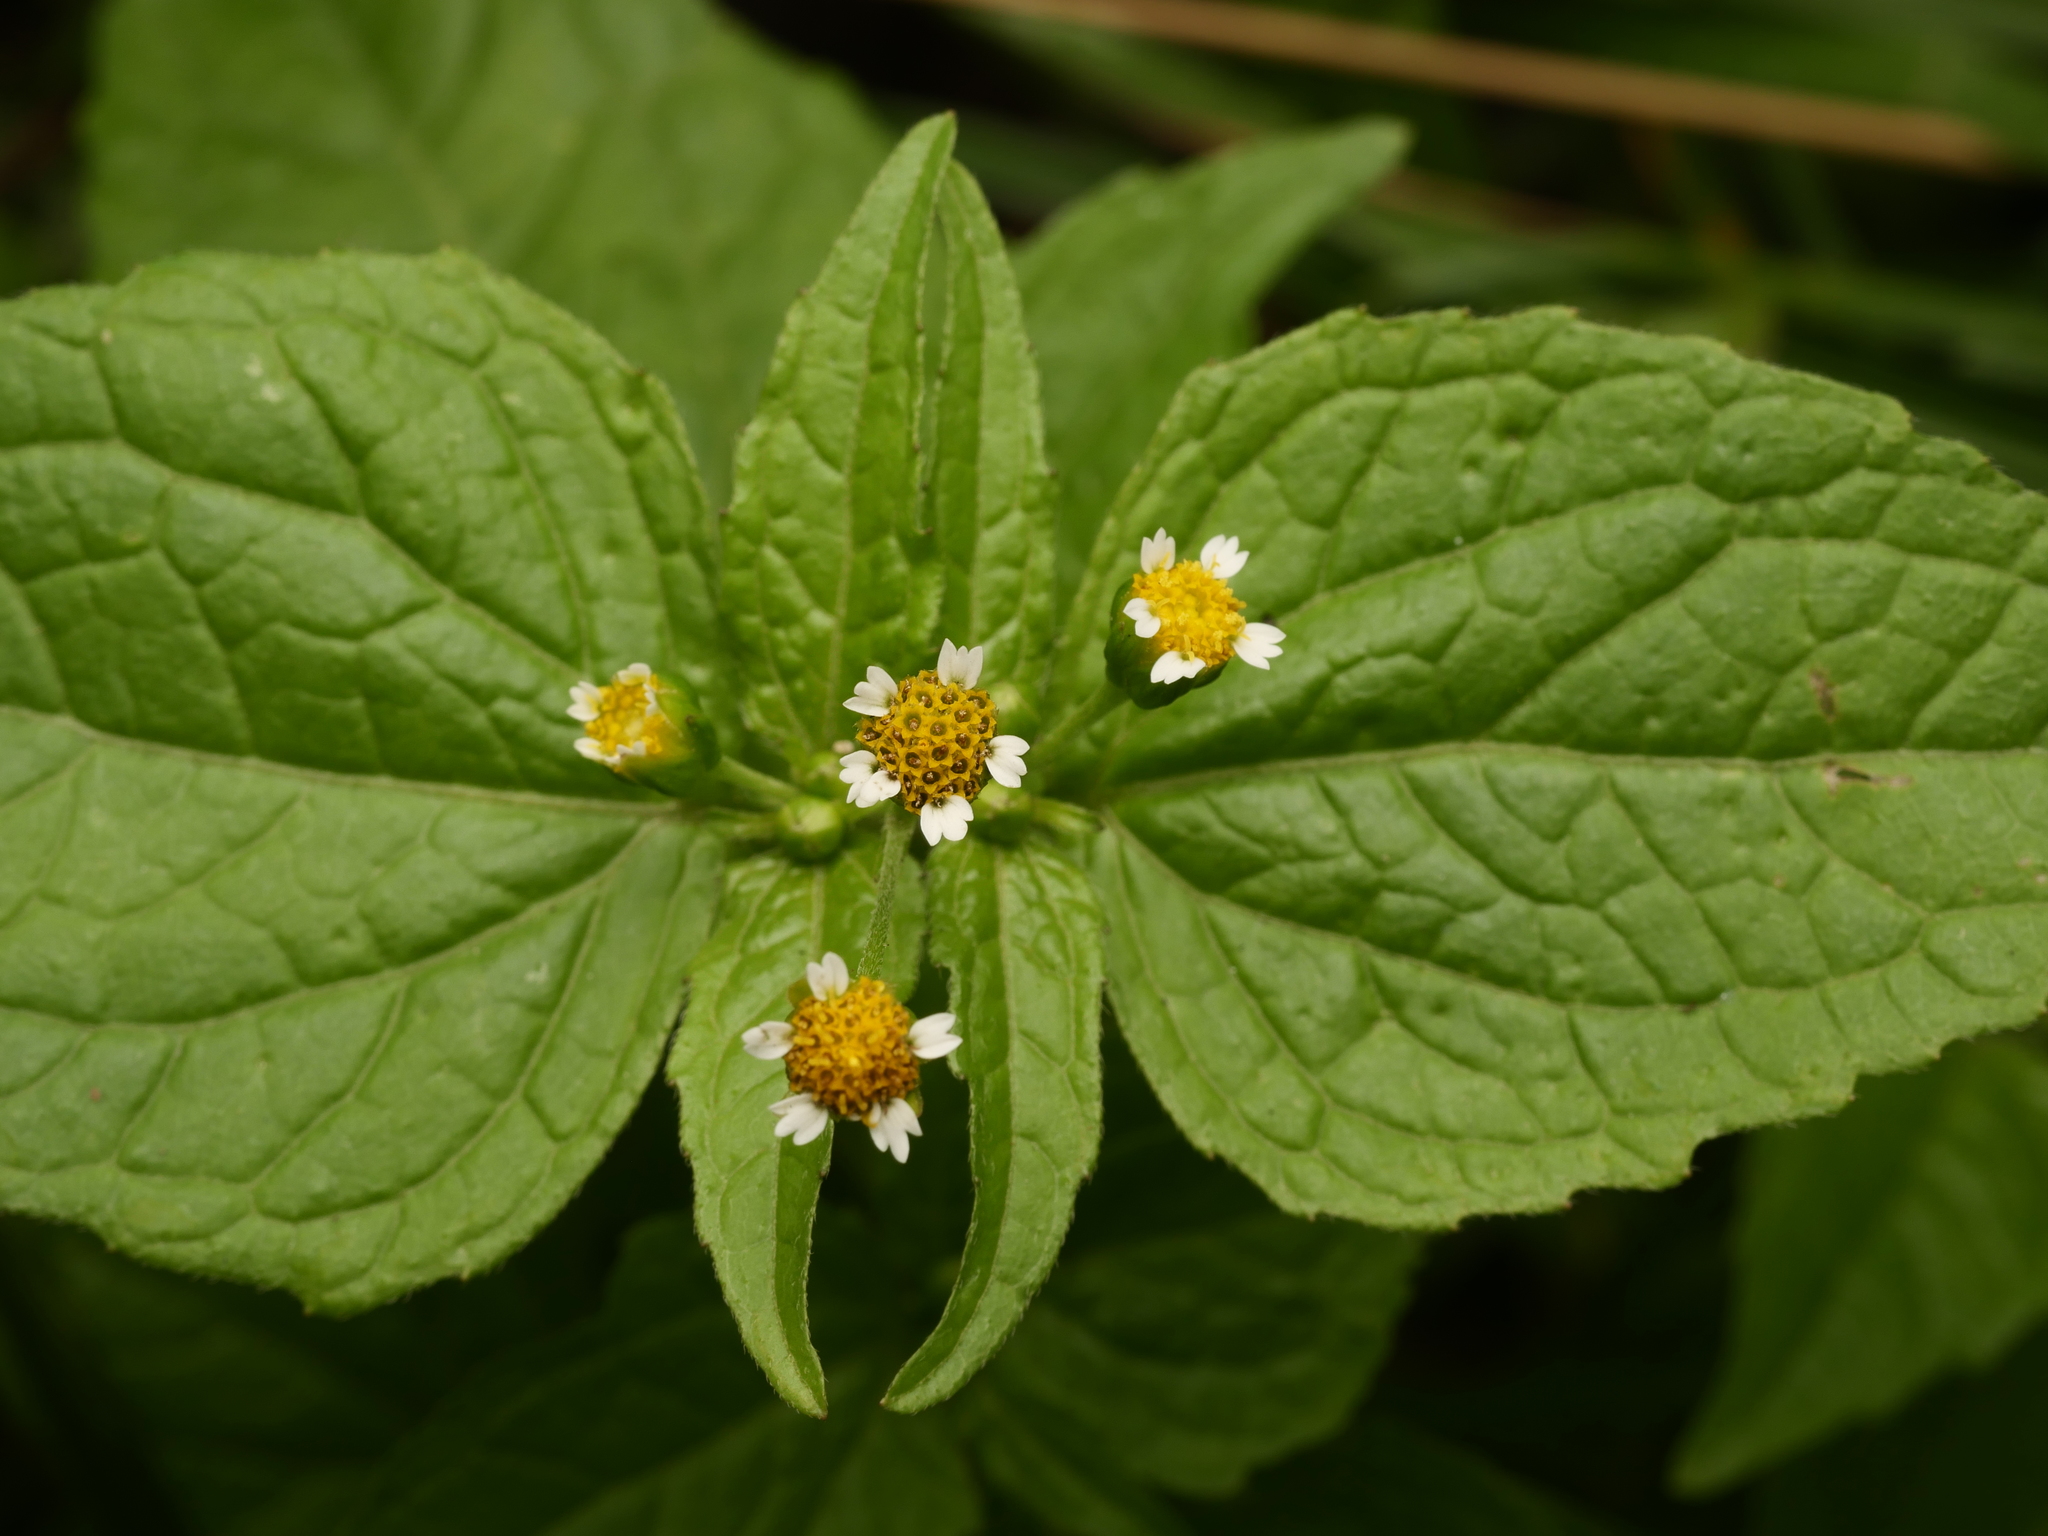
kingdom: Plantae
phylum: Tracheophyta
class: Magnoliopsida
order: Asterales
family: Asteraceae
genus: Galinsoga
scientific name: Galinsoga parviflora
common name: Gallant soldier
